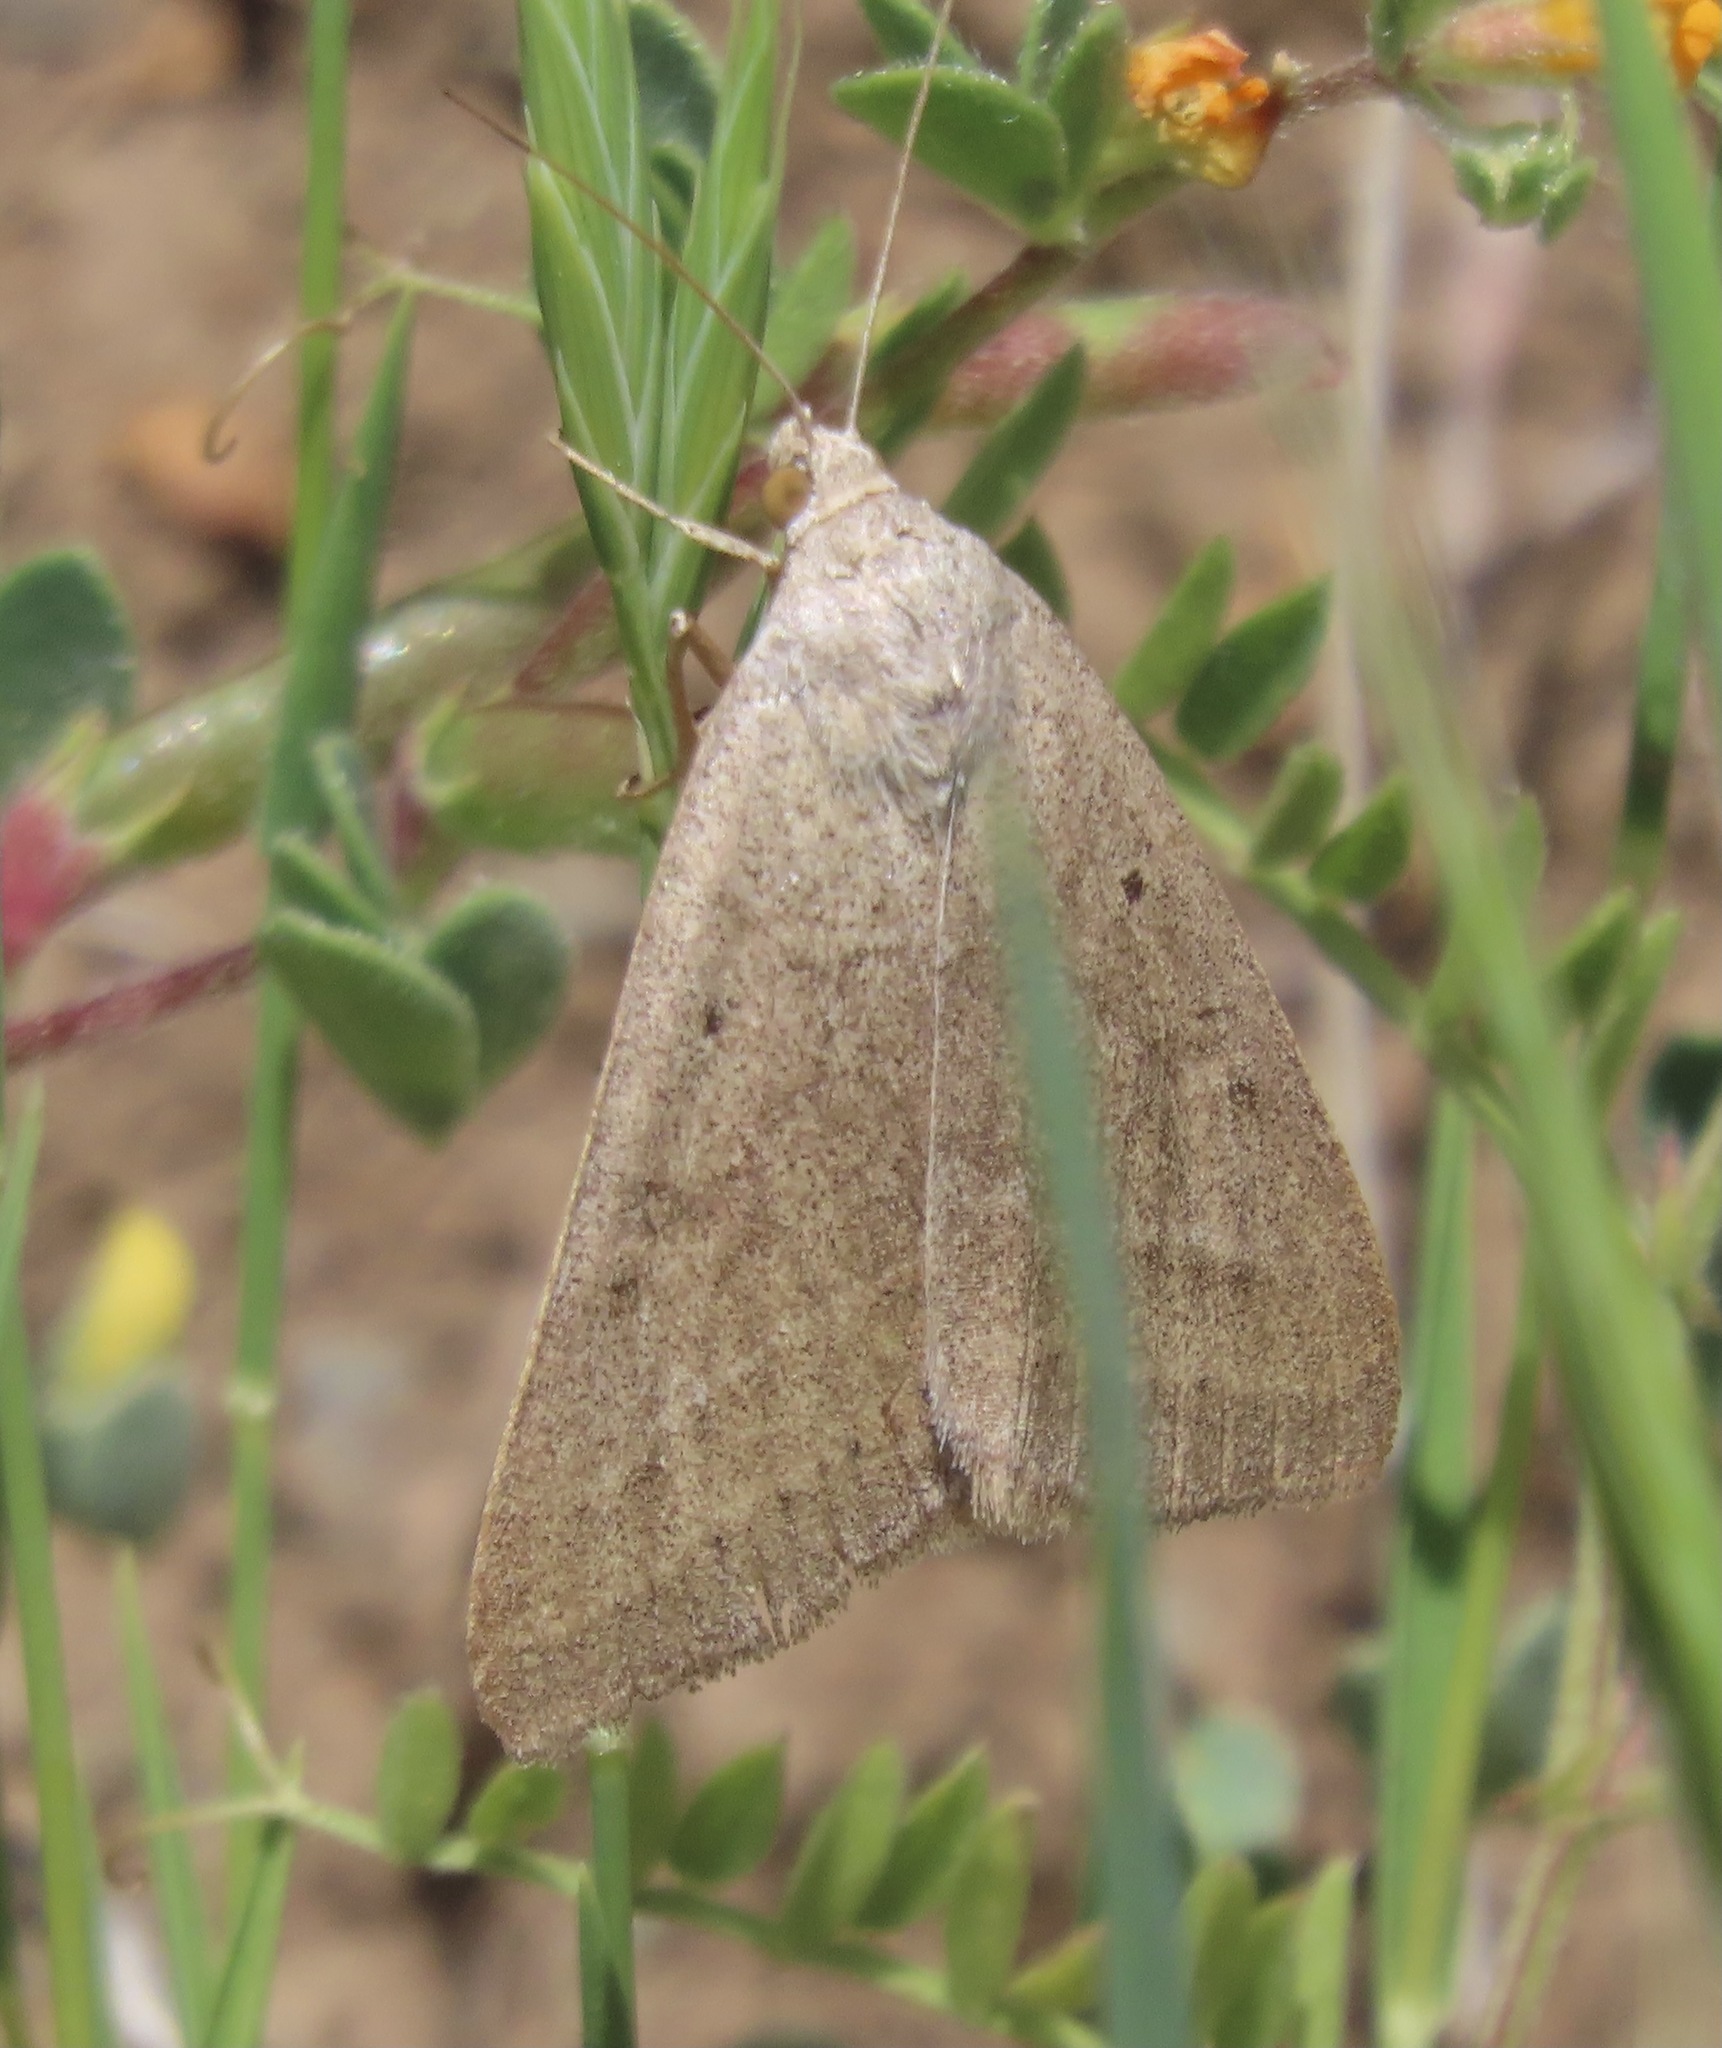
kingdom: Animalia
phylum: Arthropoda
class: Insecta
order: Lepidoptera
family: Erebidae
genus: Caenurgia
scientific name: Caenurgia togataria
